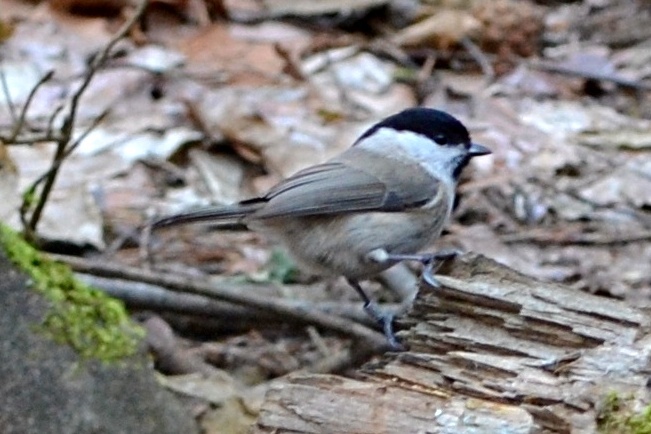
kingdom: Animalia
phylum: Chordata
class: Aves
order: Passeriformes
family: Paridae
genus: Poecile
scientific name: Poecile palustris
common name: Marsh tit
